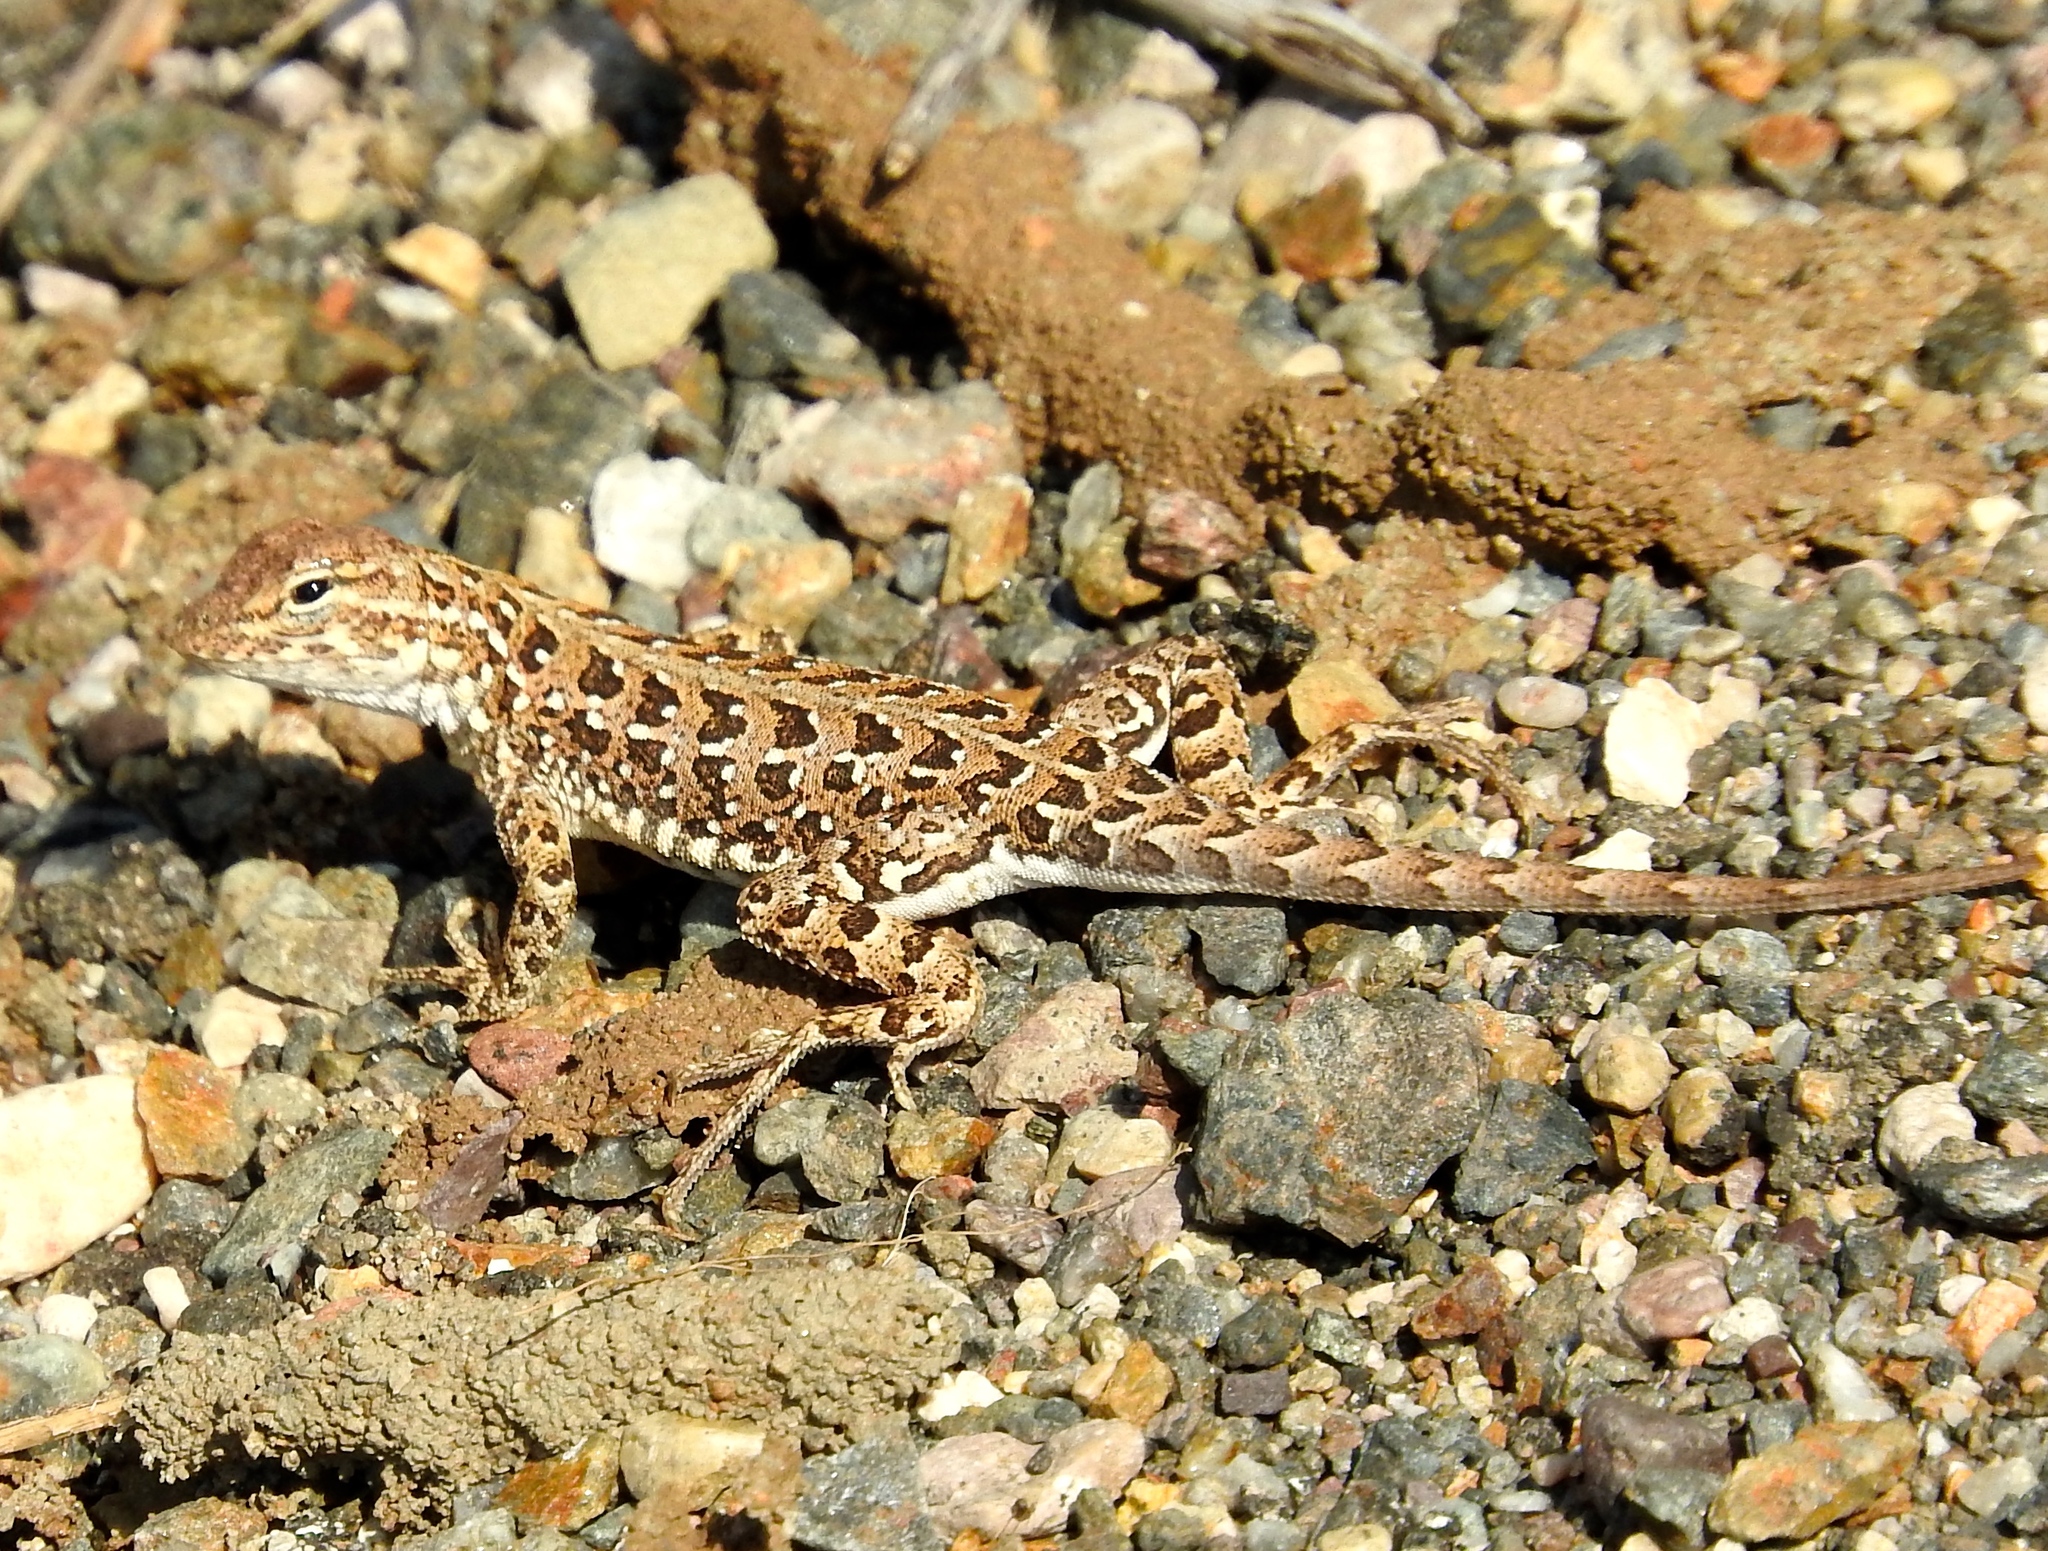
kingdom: Animalia
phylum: Chordata
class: Squamata
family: Phrynosomatidae
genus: Holbrookia
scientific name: Holbrookia elegans
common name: Elegant earless lizard
